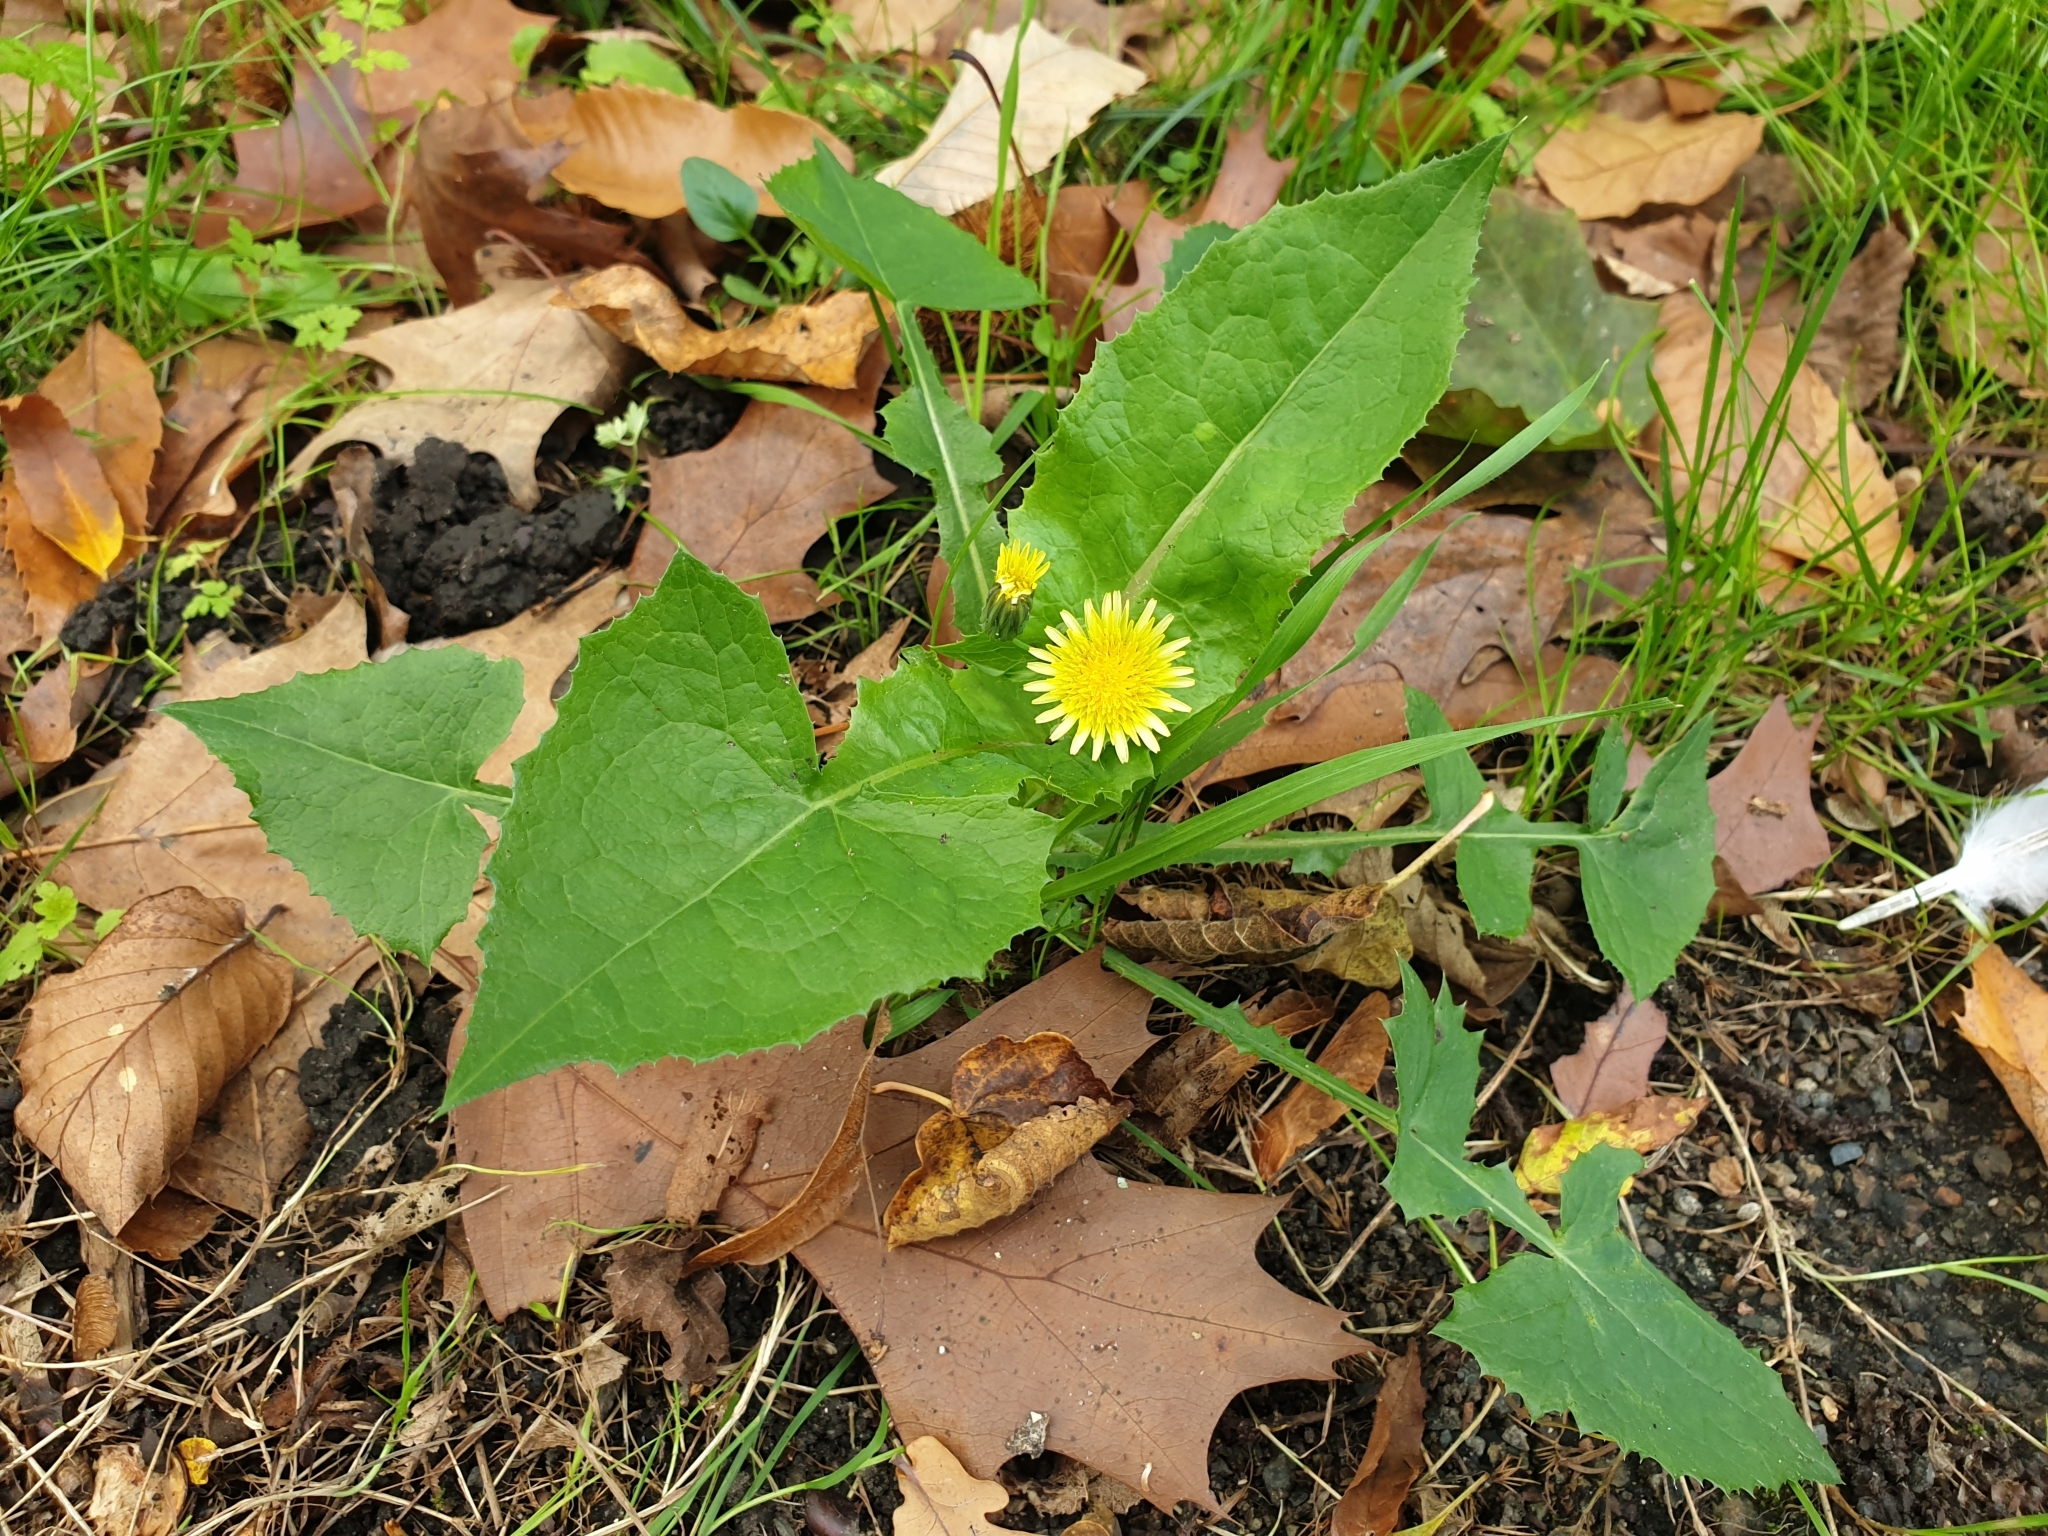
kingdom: Plantae
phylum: Tracheophyta
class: Magnoliopsida
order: Asterales
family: Asteraceae
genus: Sonchus
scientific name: Sonchus oleraceus
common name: Common sowthistle
